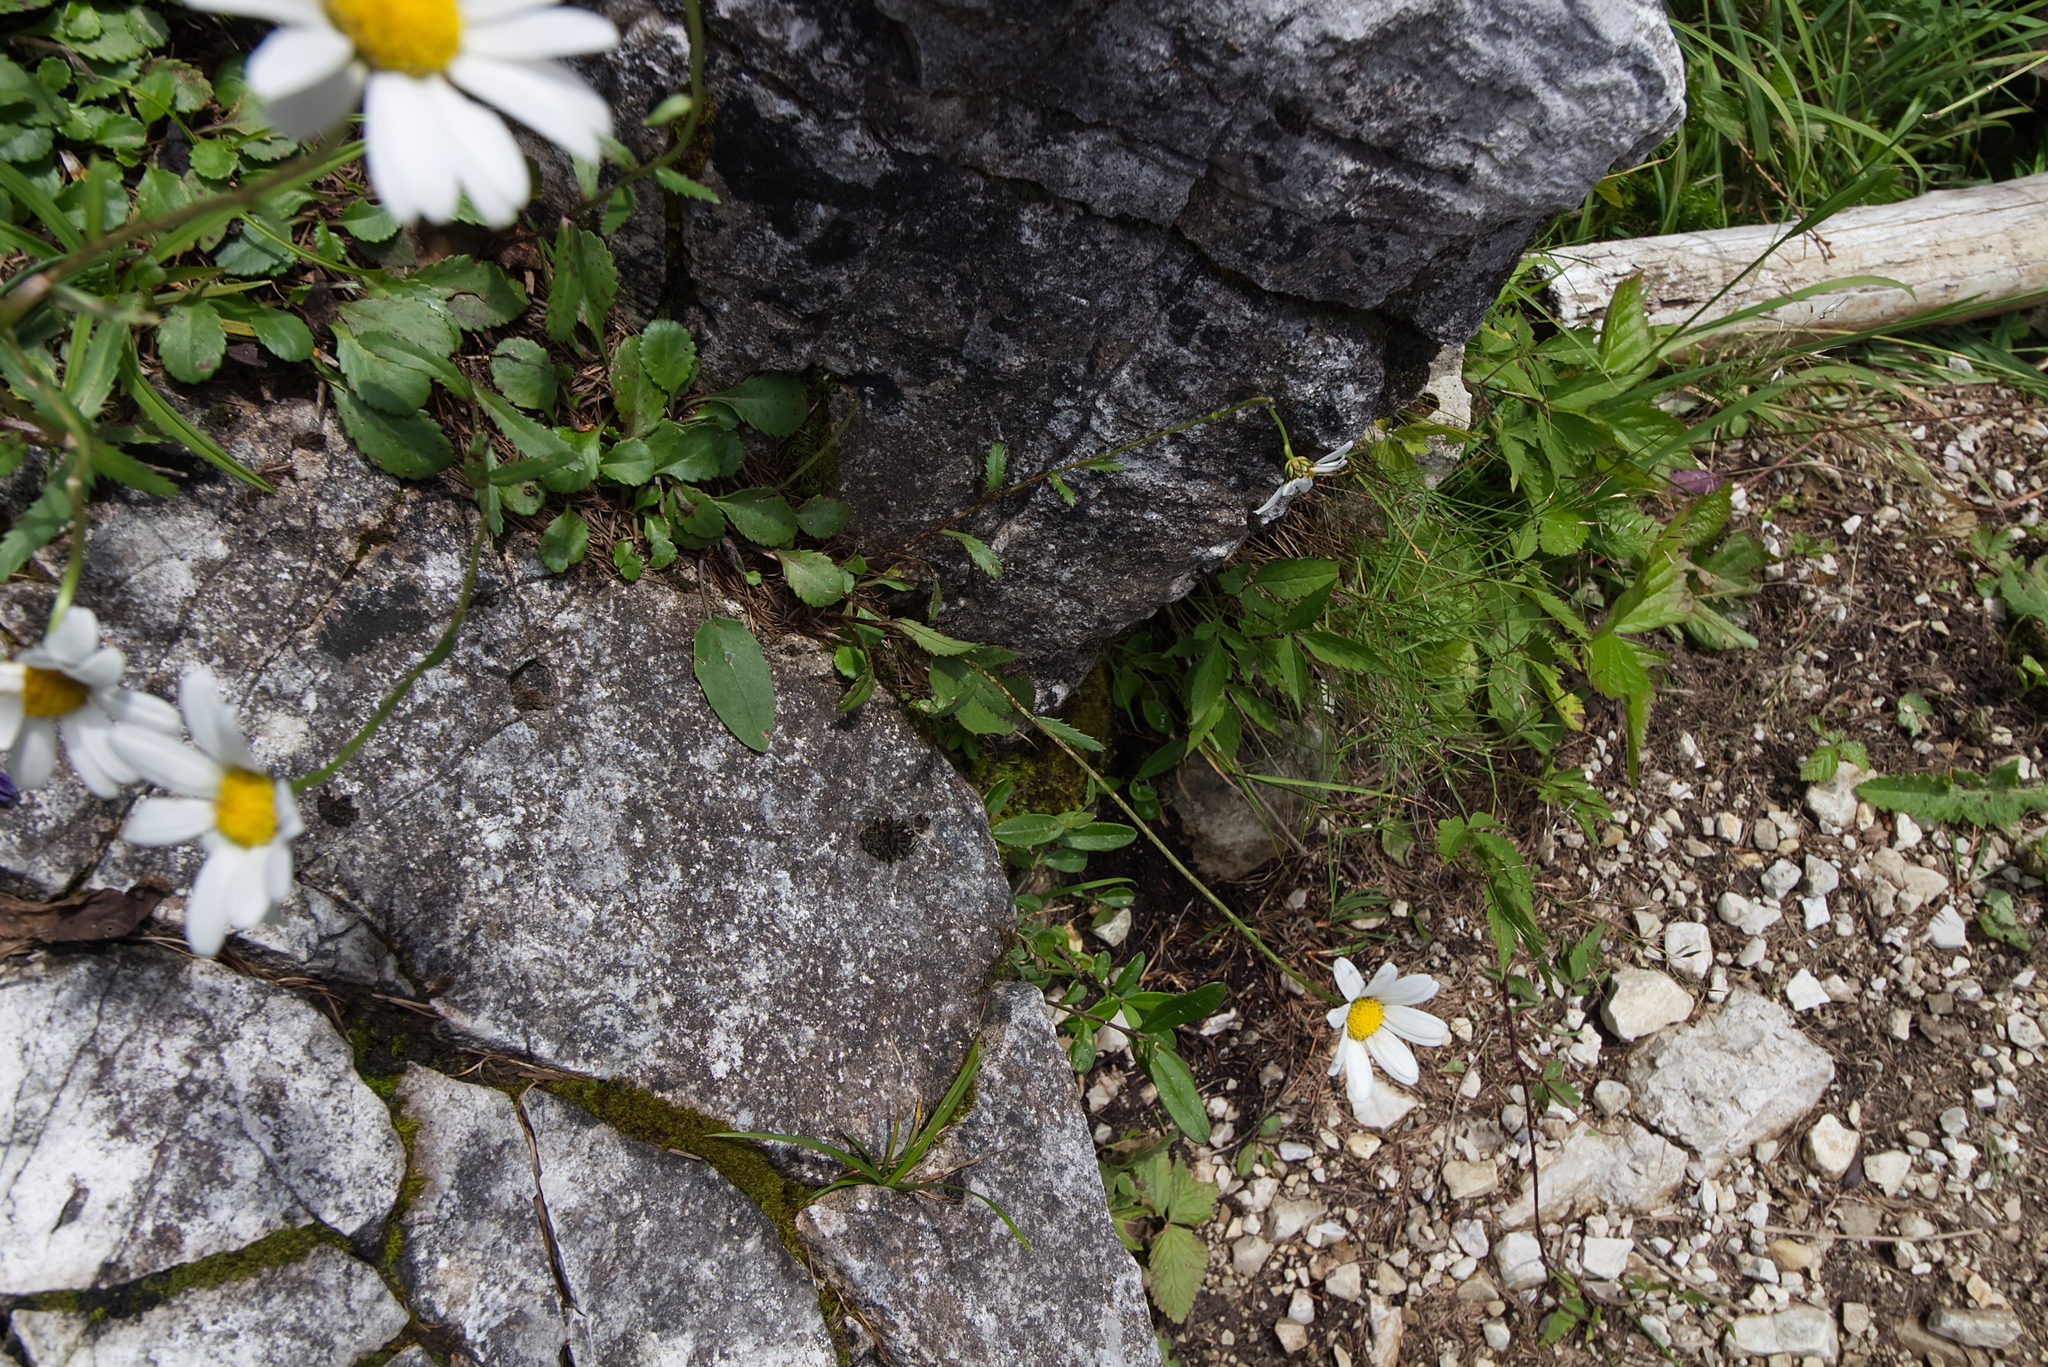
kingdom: Plantae
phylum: Tracheophyta
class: Magnoliopsida
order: Asterales
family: Asteraceae
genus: Leucanthemum
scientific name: Leucanthemum adustum
